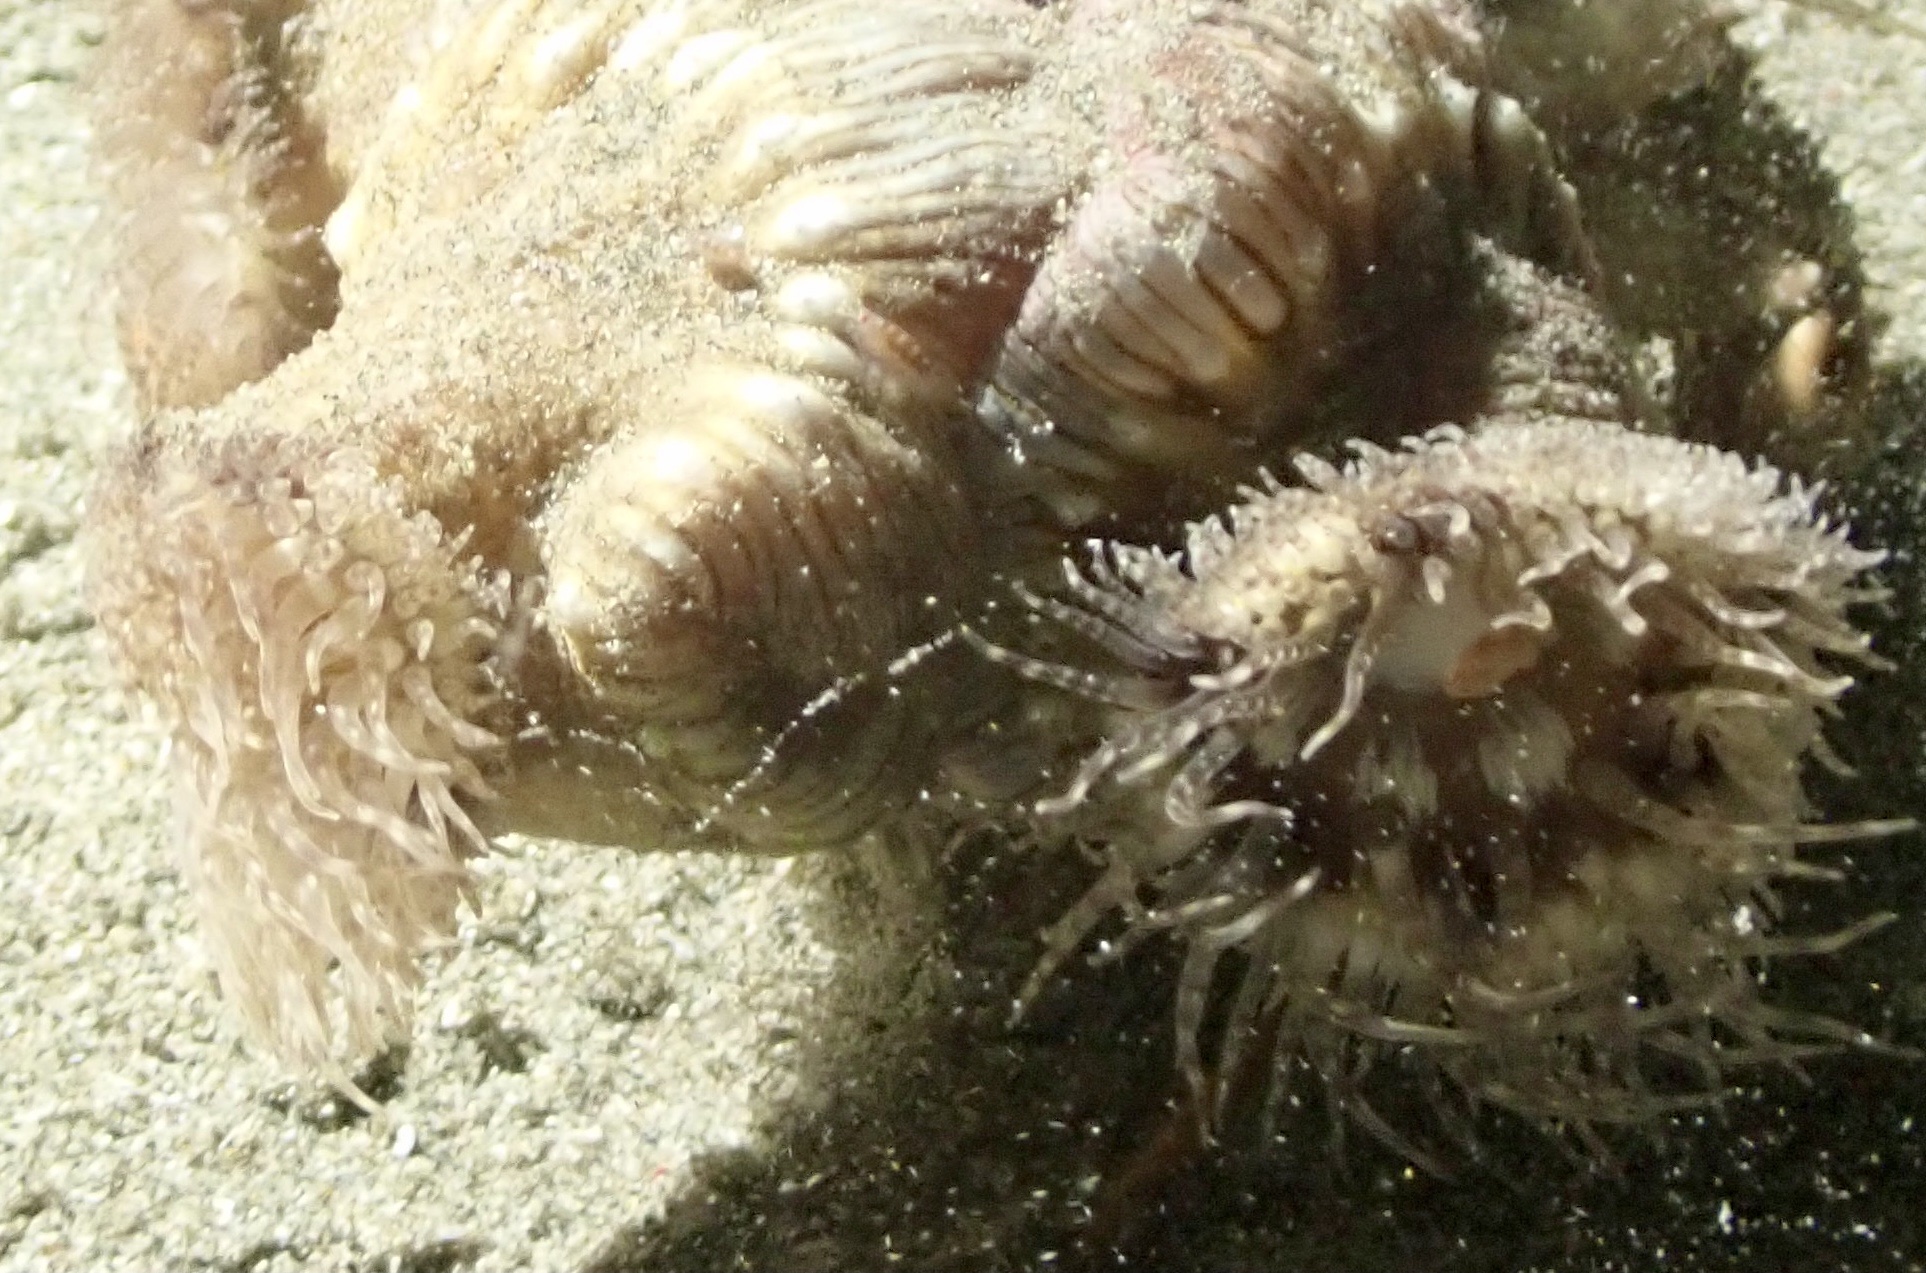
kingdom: Animalia
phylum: Cnidaria
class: Anthozoa
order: Actiniaria
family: Hormathiidae
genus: Calliactis
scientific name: Calliactis polypus
